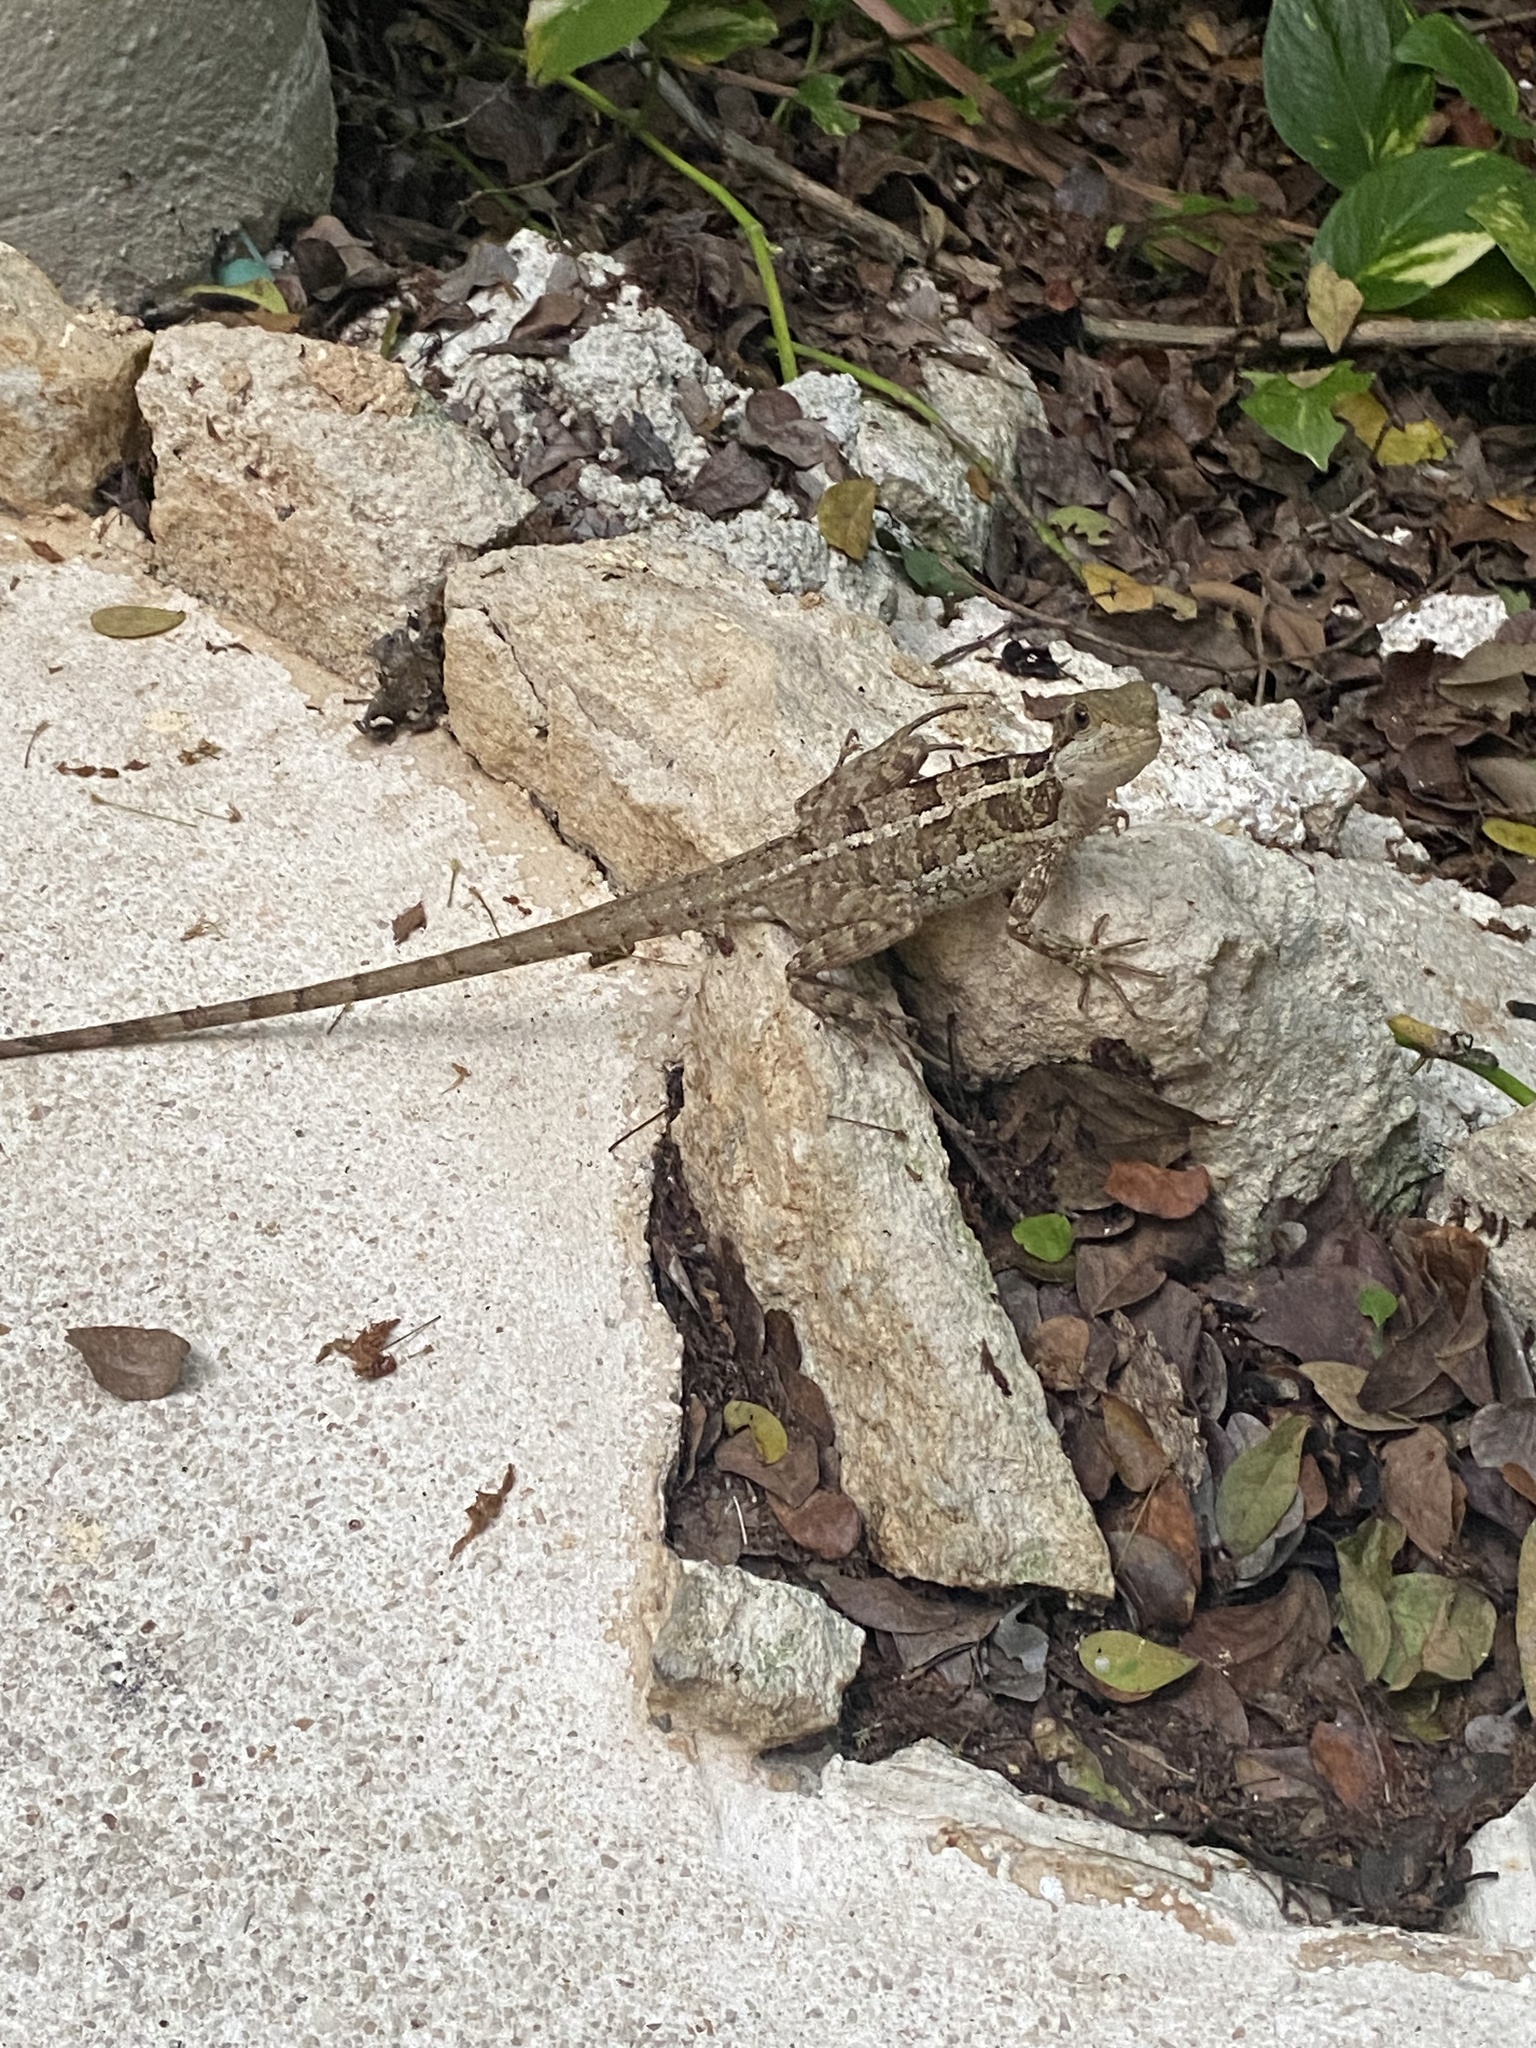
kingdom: Animalia
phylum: Chordata
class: Squamata
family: Corytophanidae
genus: Basiliscus
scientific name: Basiliscus vittatus
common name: Brown basilisk
